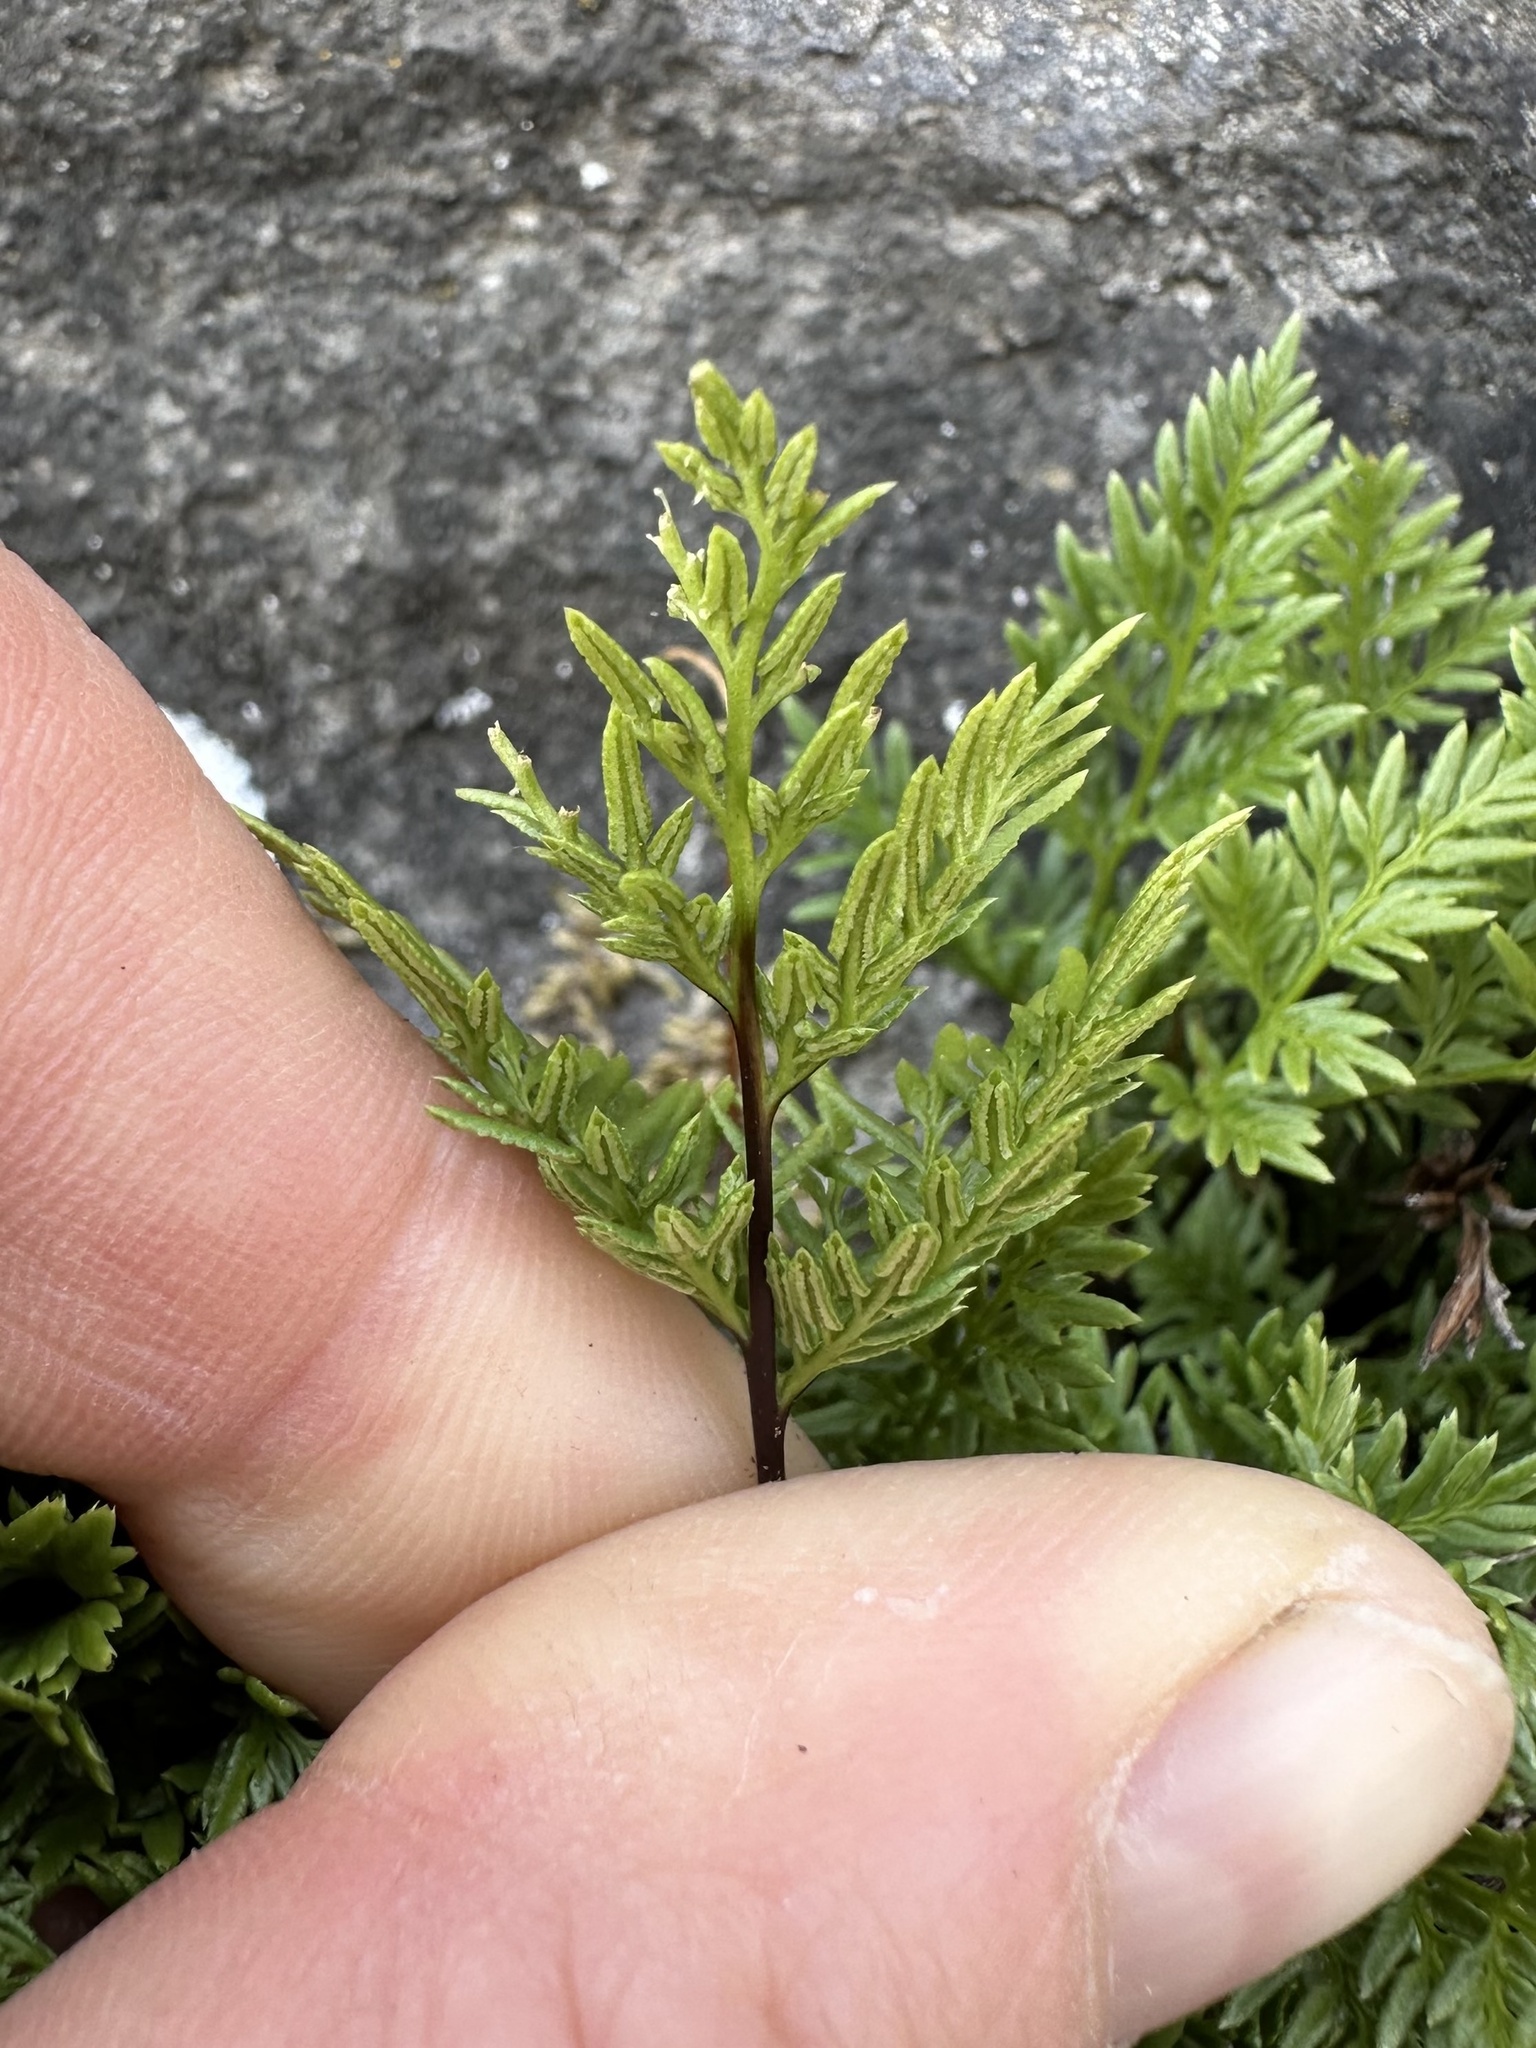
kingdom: Plantae
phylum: Tracheophyta
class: Polypodiopsida
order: Polypodiales
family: Pteridaceae
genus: Aspidotis
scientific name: Aspidotis densa
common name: Indian's dream
